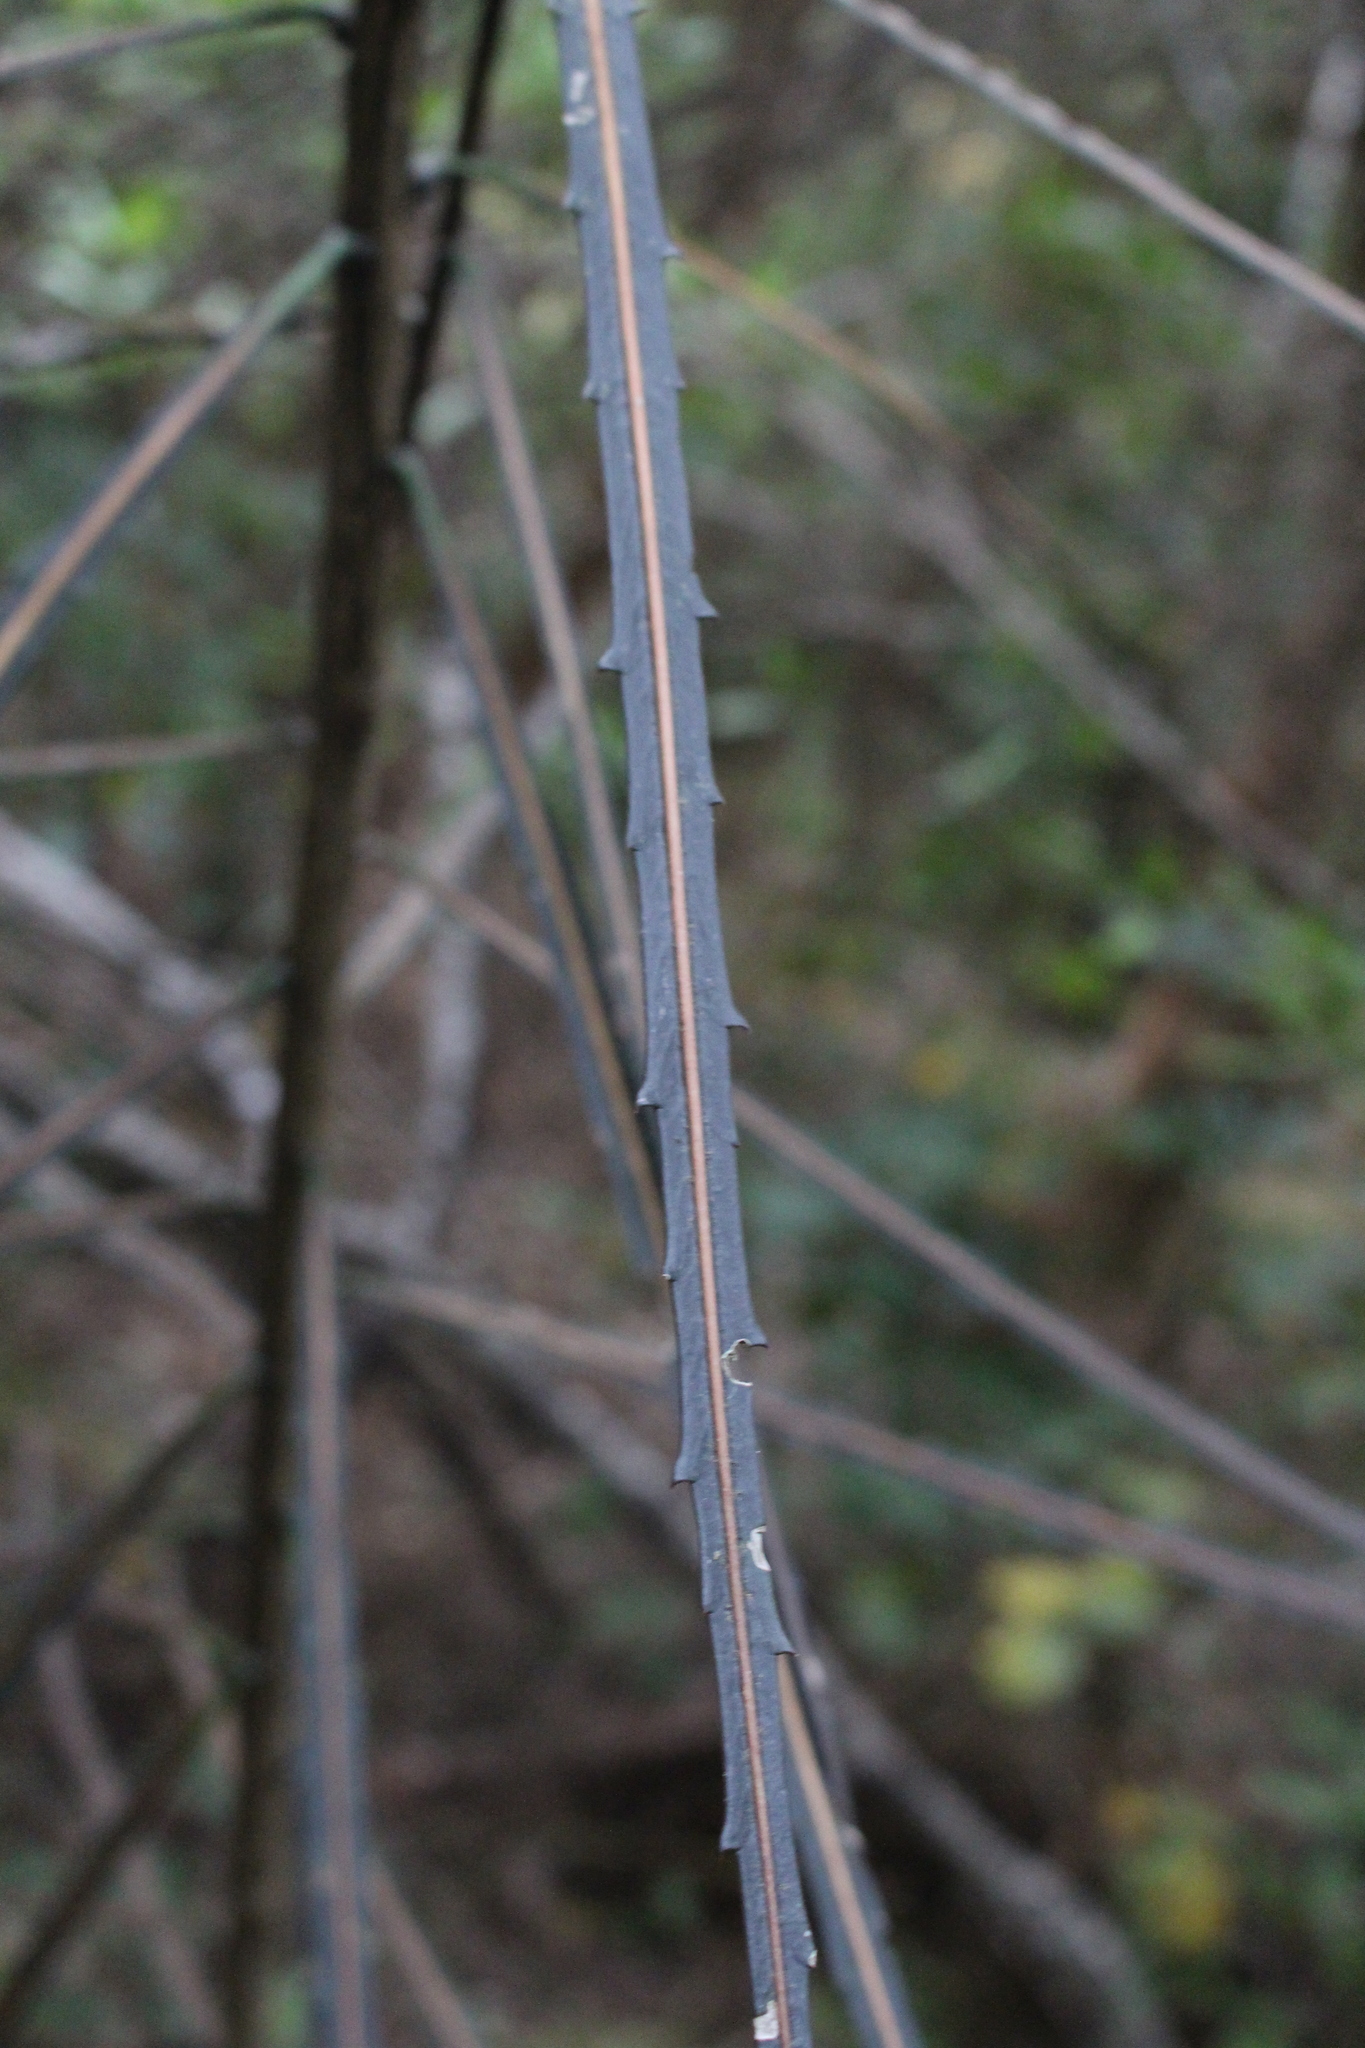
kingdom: Plantae
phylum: Tracheophyta
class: Magnoliopsida
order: Apiales
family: Araliaceae
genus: Pseudopanax
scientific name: Pseudopanax crassifolius
